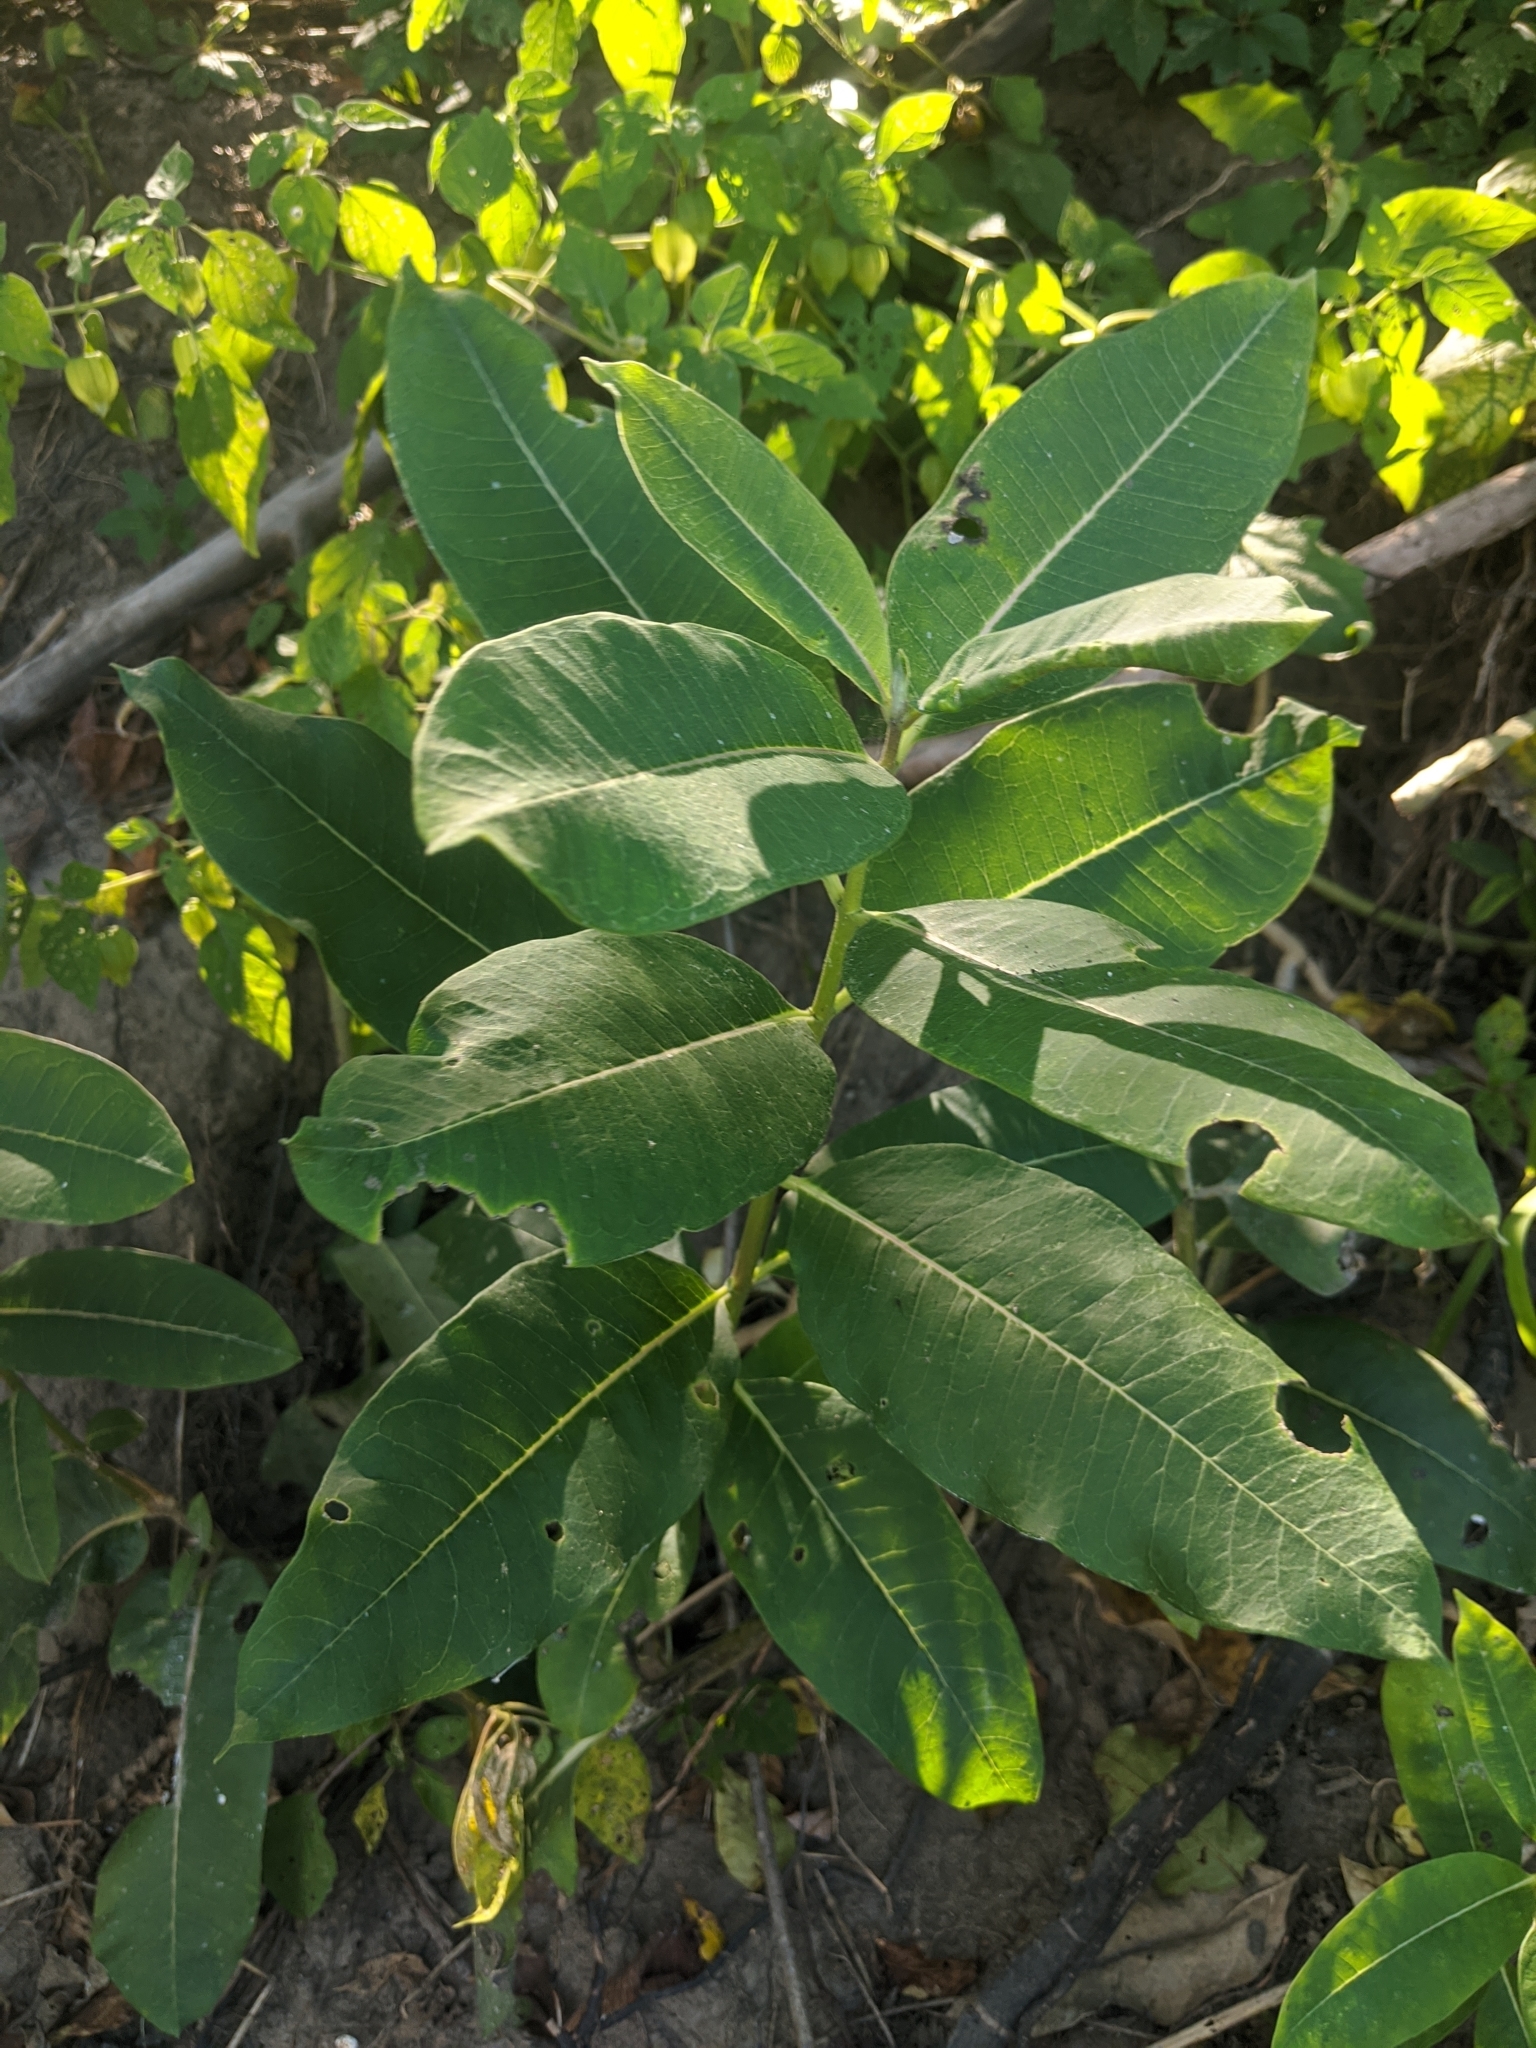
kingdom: Plantae
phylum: Tracheophyta
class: Magnoliopsida
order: Gentianales
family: Apocynaceae
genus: Asclepias
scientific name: Asclepias syriaca
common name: Common milkweed
